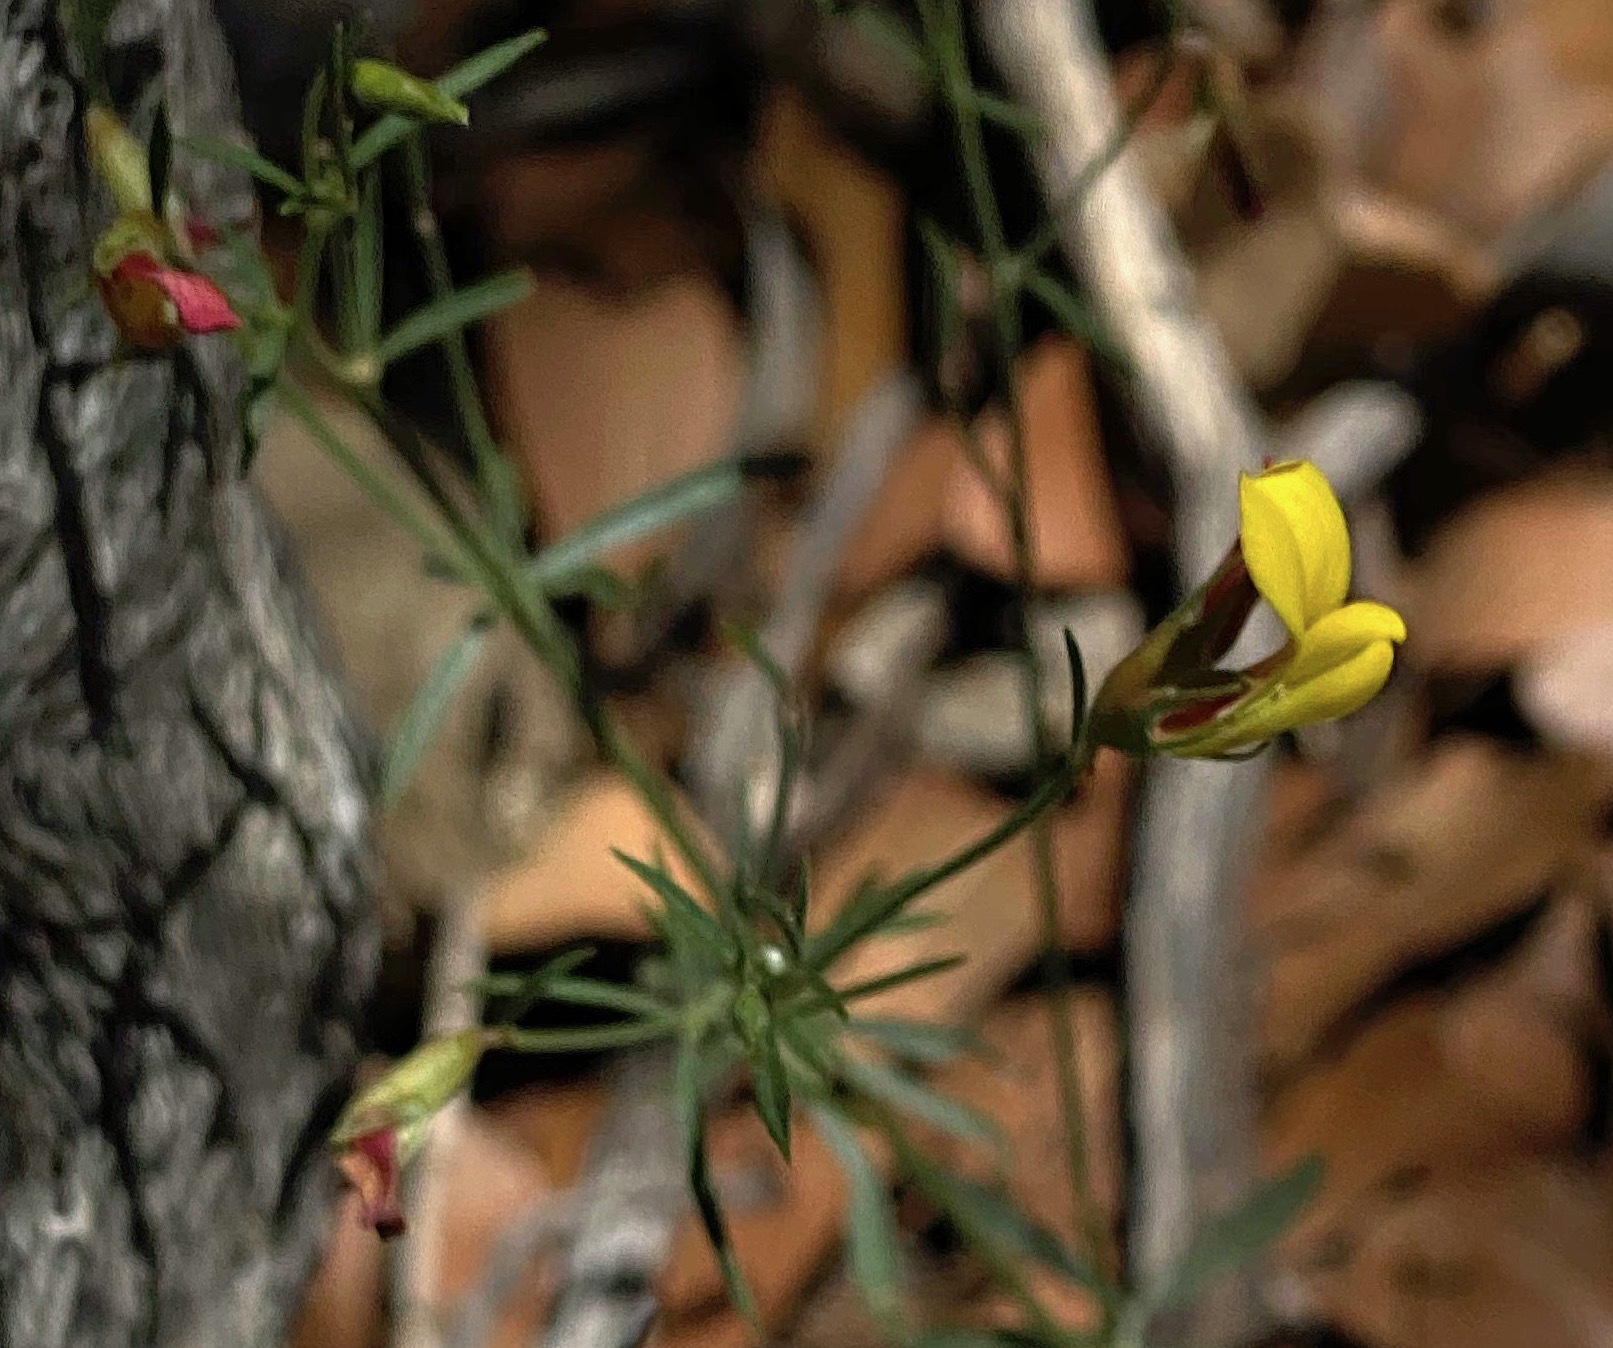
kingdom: Plantae
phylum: Tracheophyta
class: Magnoliopsida
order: Fabales
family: Fabaceae
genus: Acmispon
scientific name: Acmispon oroboides
